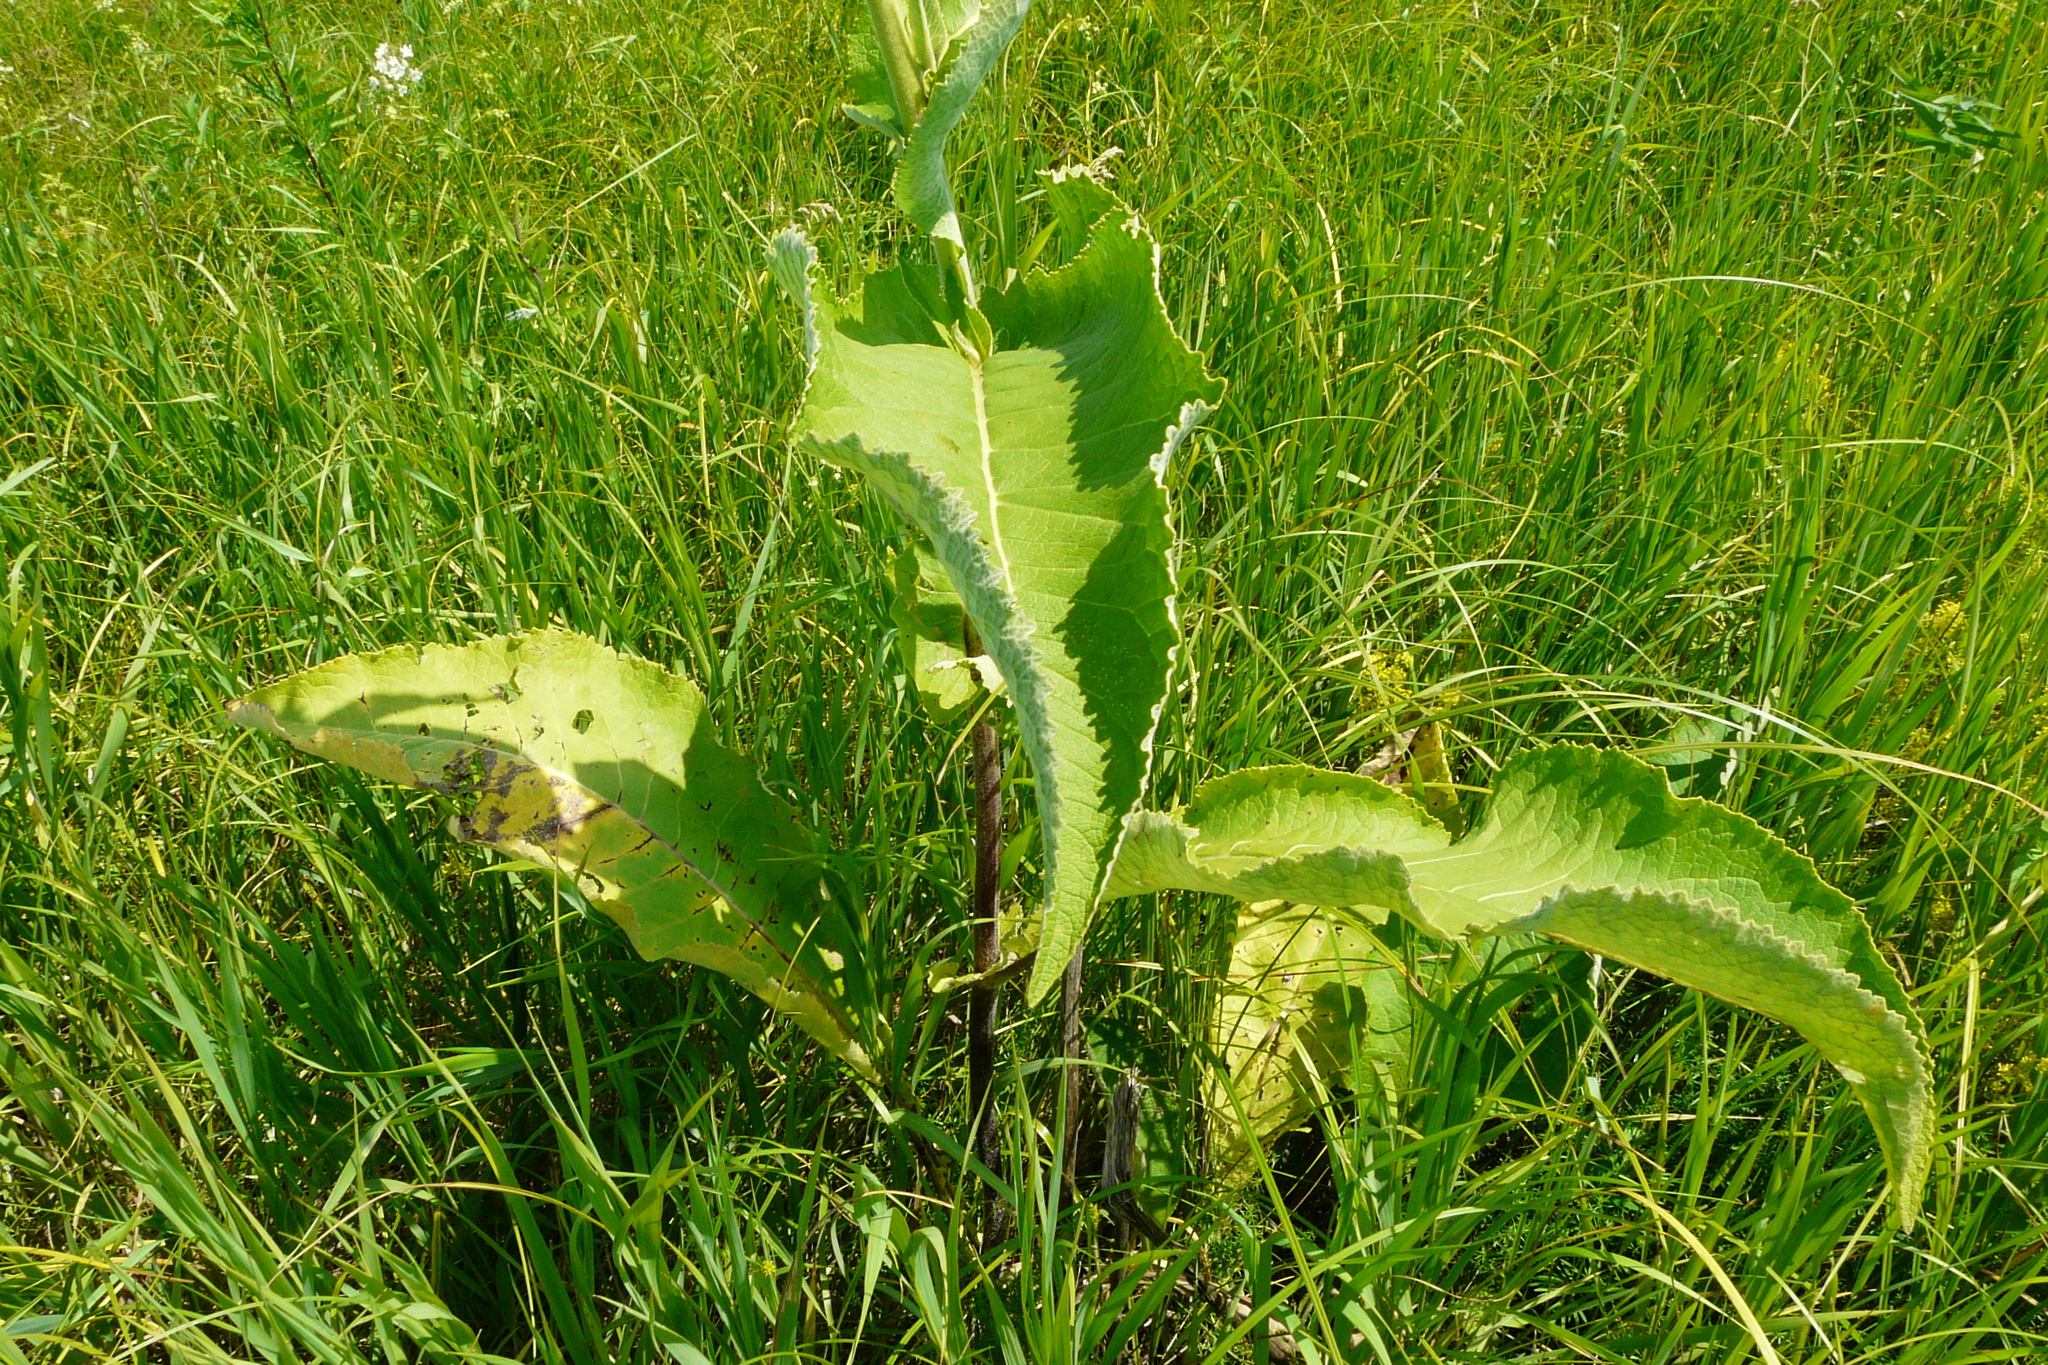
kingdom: Plantae
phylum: Tracheophyta
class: Magnoliopsida
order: Asterales
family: Asteraceae
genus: Inula
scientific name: Inula helenium
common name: Elecampane
